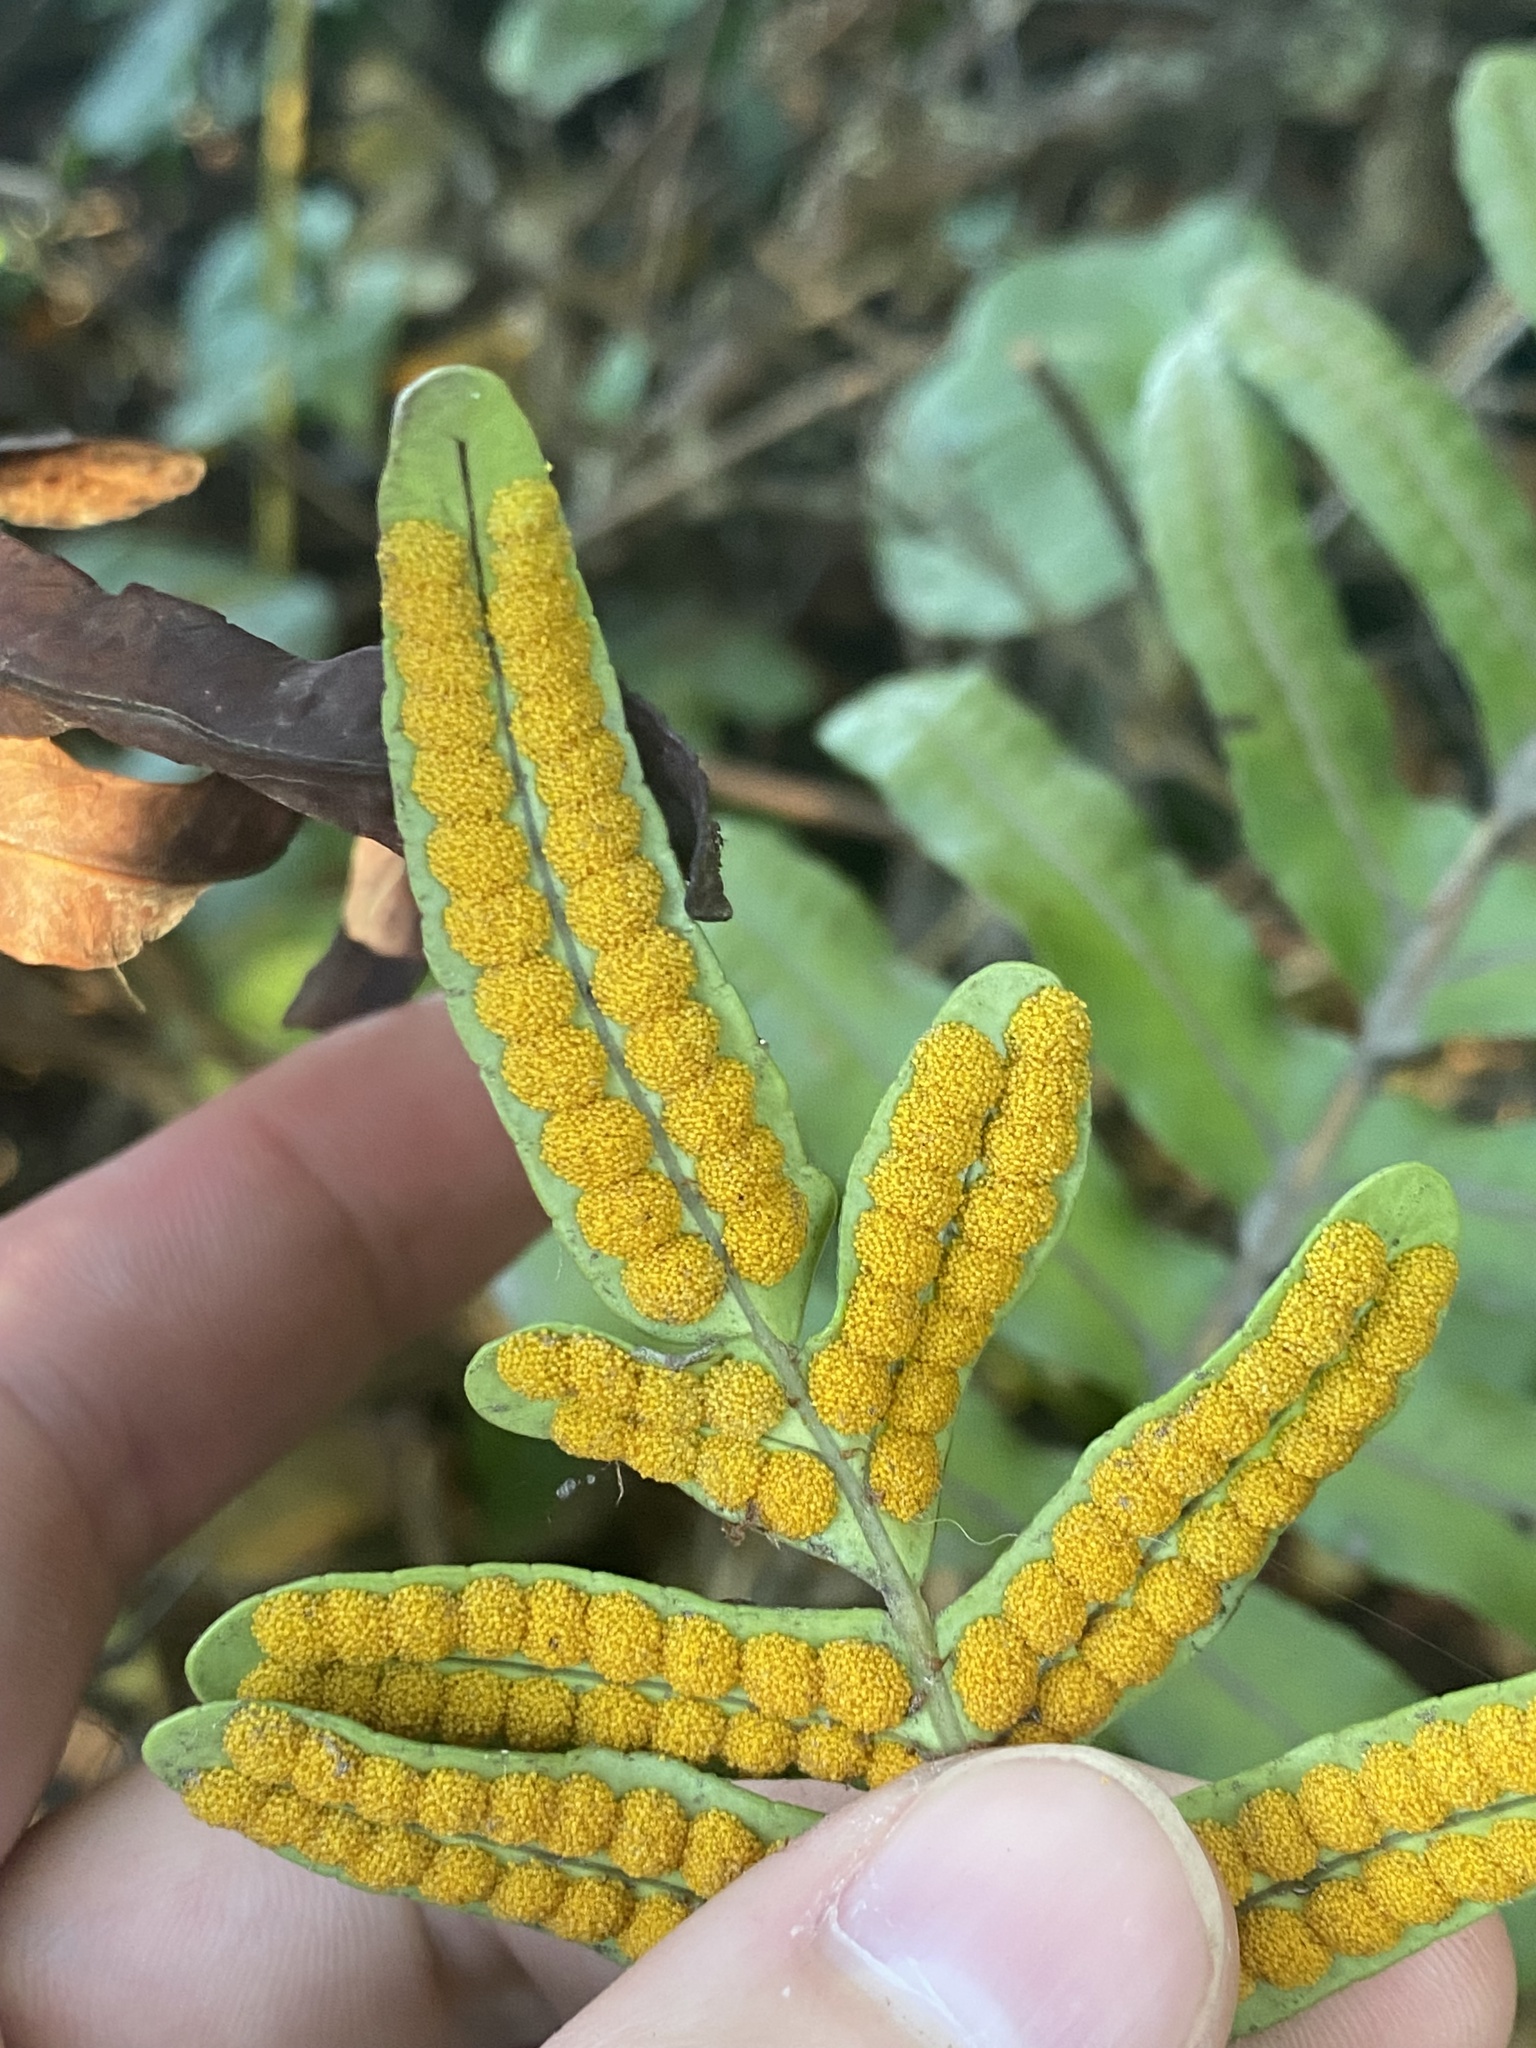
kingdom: Plantae
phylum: Tracheophyta
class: Polypodiopsida
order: Polypodiales
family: Polypodiaceae
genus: Polypodium
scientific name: Polypodium scouleri
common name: Scouler's polypody
